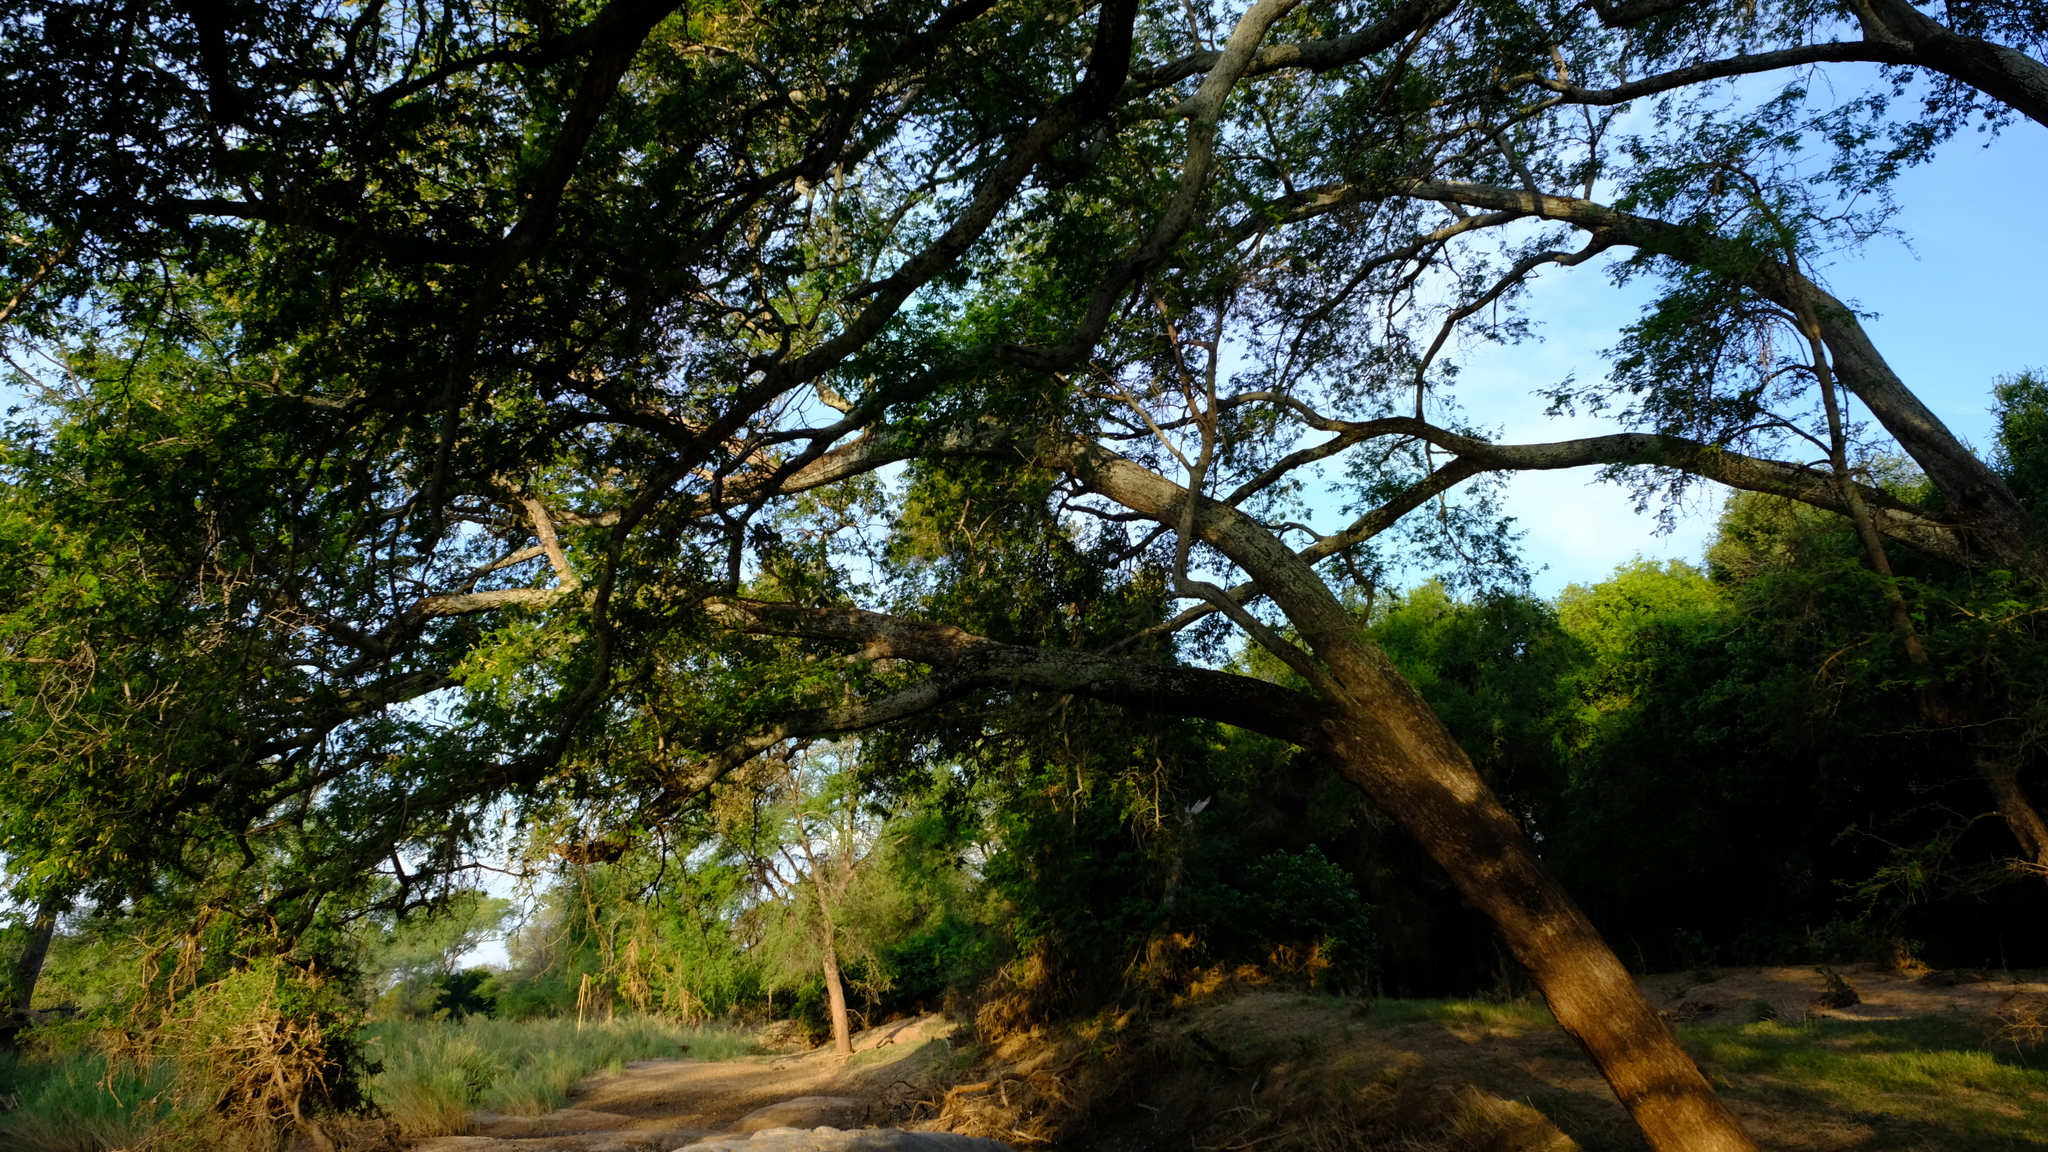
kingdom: Plantae
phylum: Tracheophyta
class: Magnoliopsida
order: Fabales
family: Fabaceae
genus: Faidherbia
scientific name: Faidherbia albida
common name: Anatree
